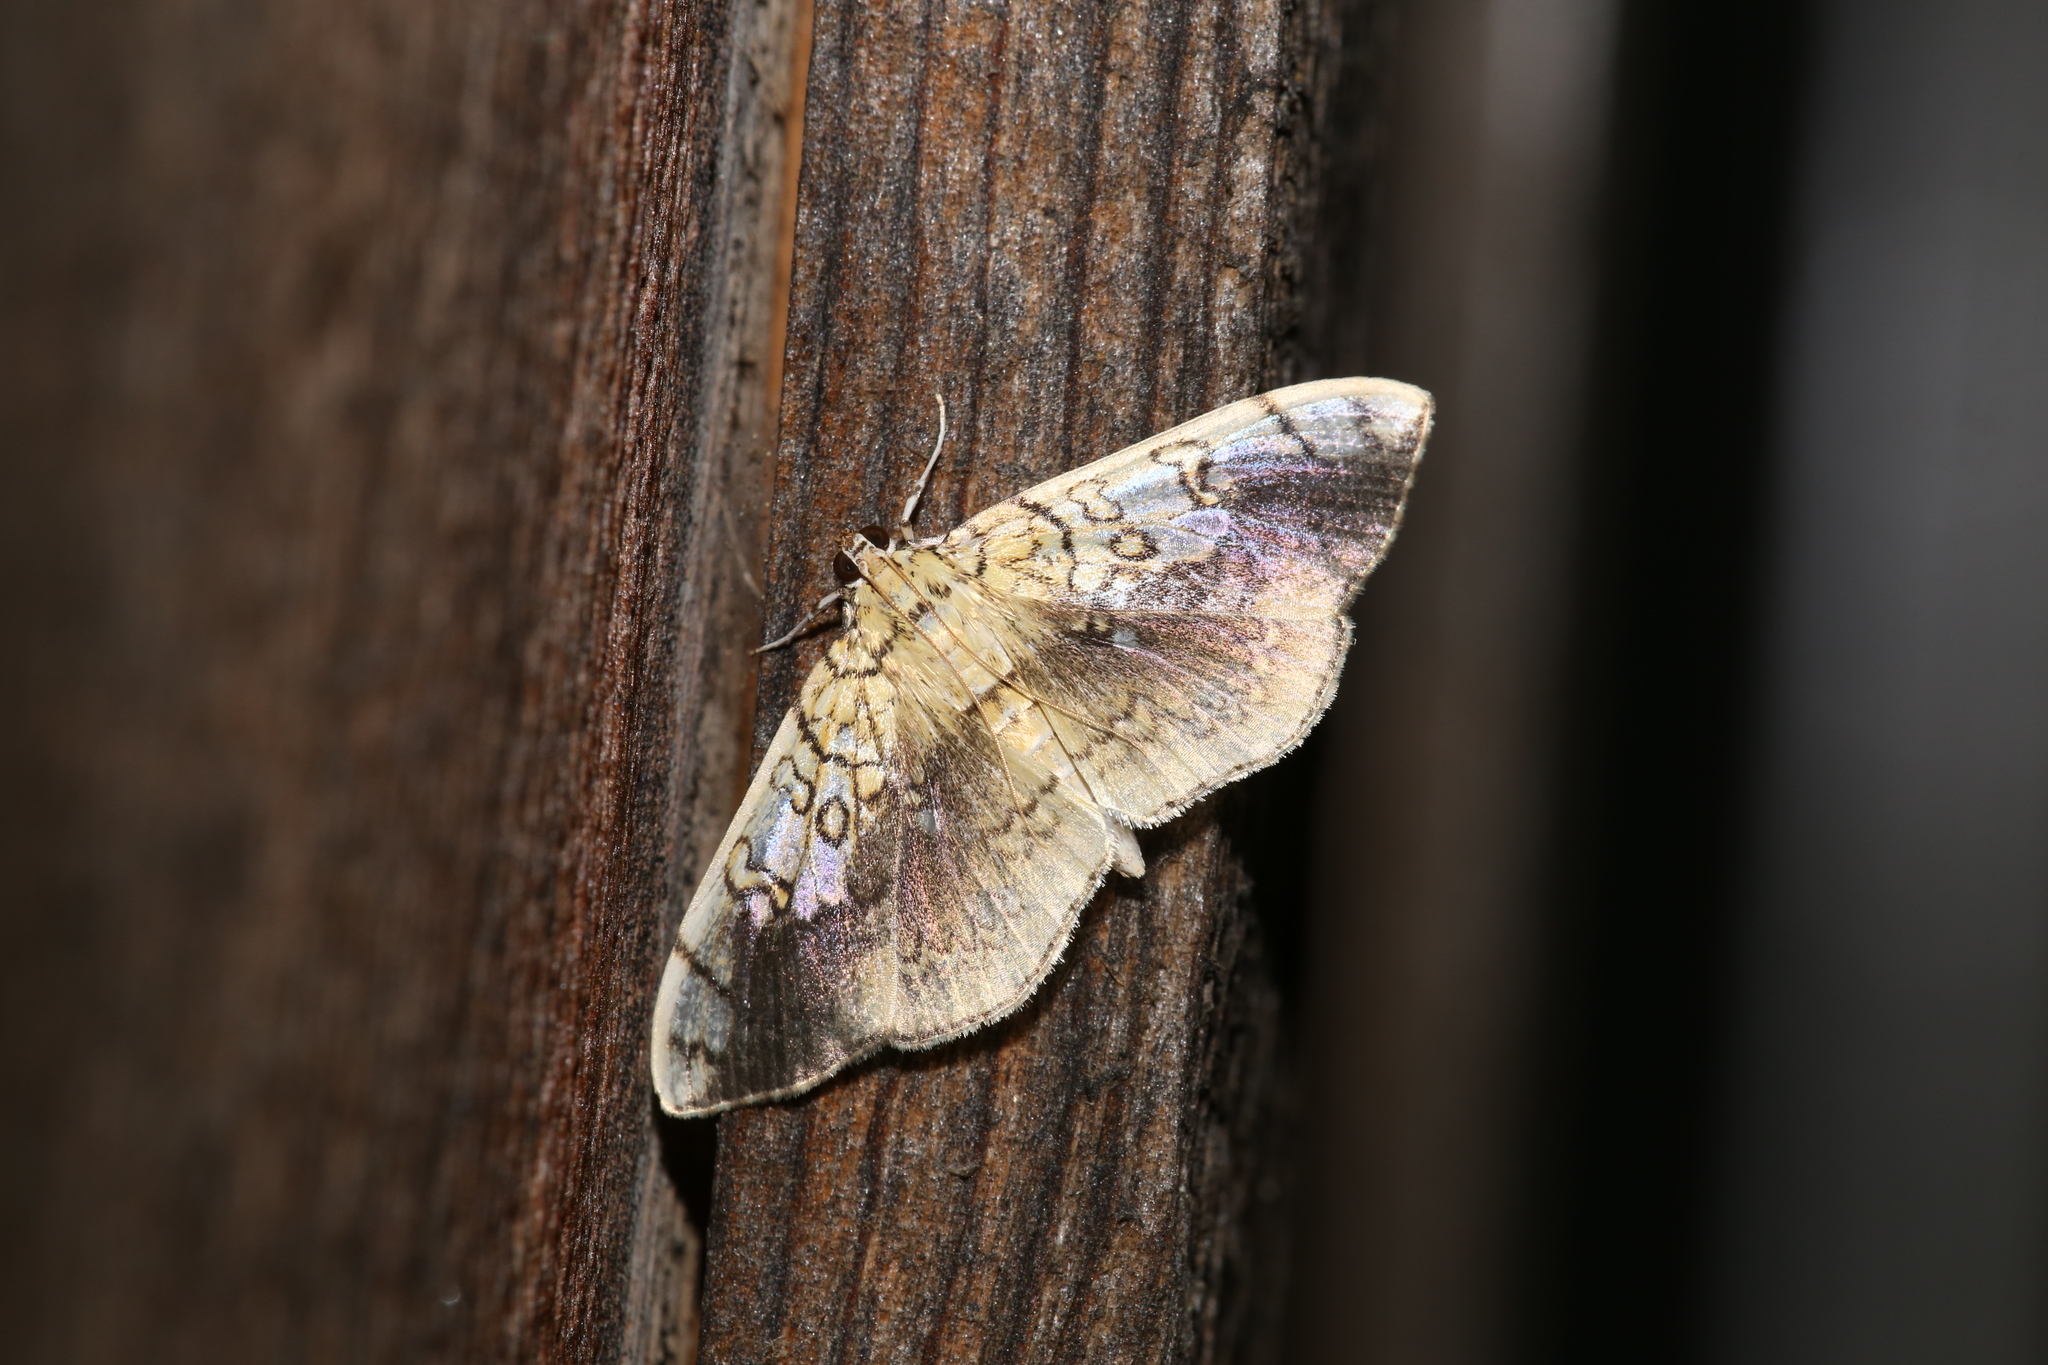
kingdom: Animalia
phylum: Arthropoda
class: Insecta
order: Lepidoptera
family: Crambidae
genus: Pantographa
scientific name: Pantographa limata
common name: Basswood leafroller moth
